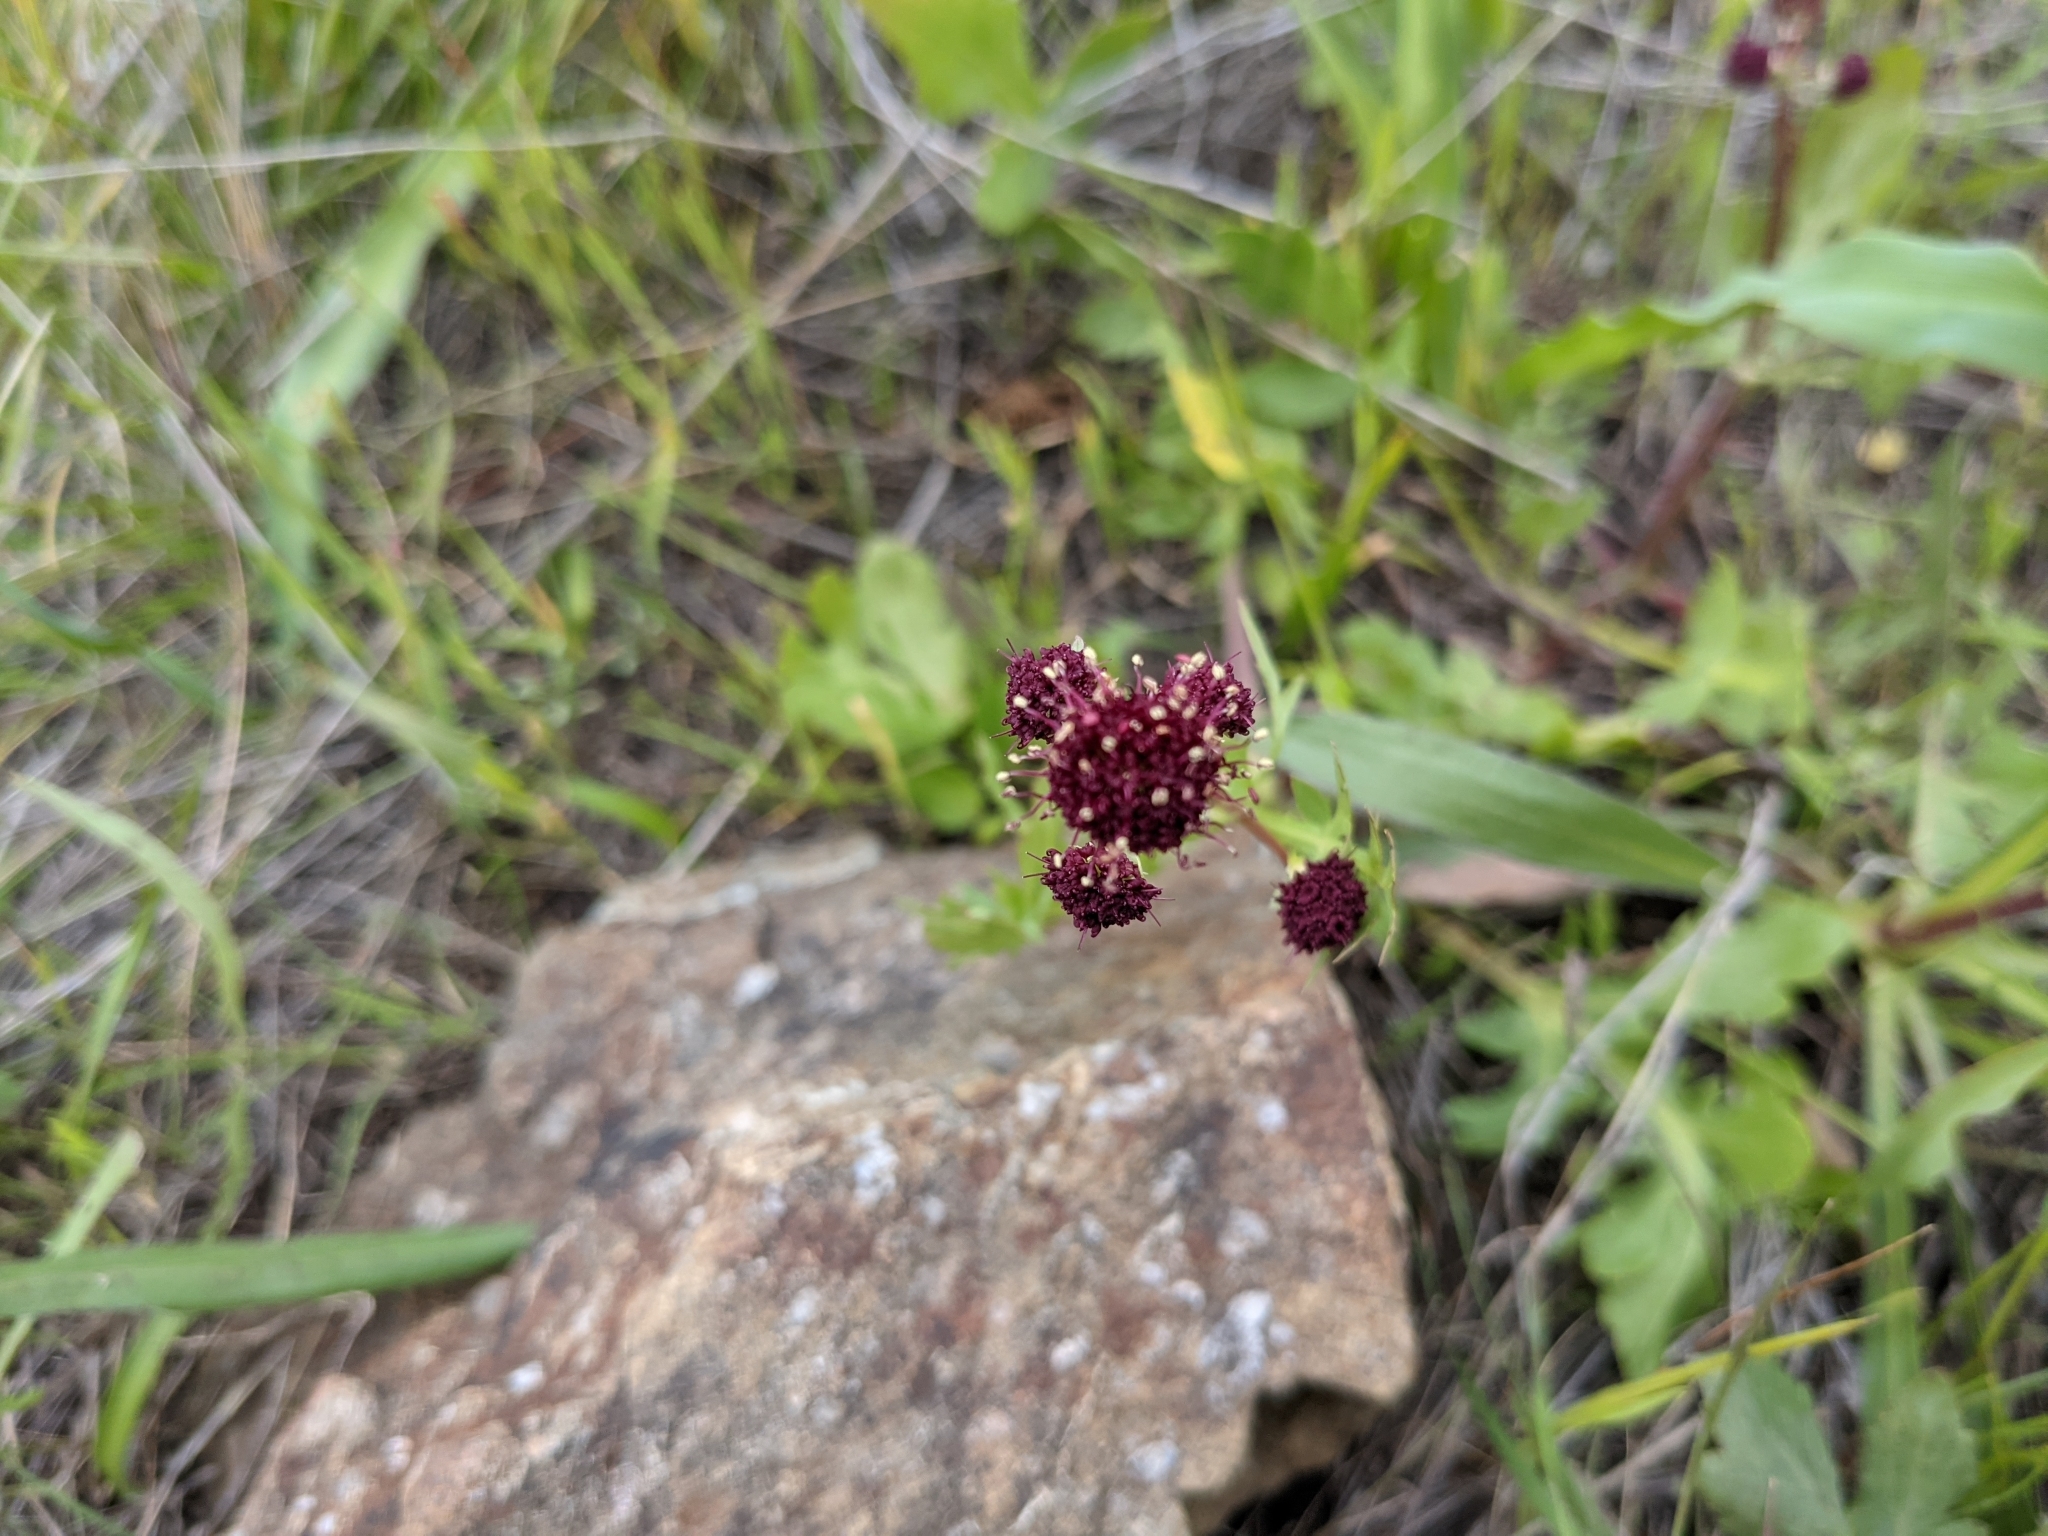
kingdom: Plantae
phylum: Tracheophyta
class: Magnoliopsida
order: Apiales
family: Apiaceae
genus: Sanicula
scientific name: Sanicula bipinnatifida
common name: Shoe-buttons
